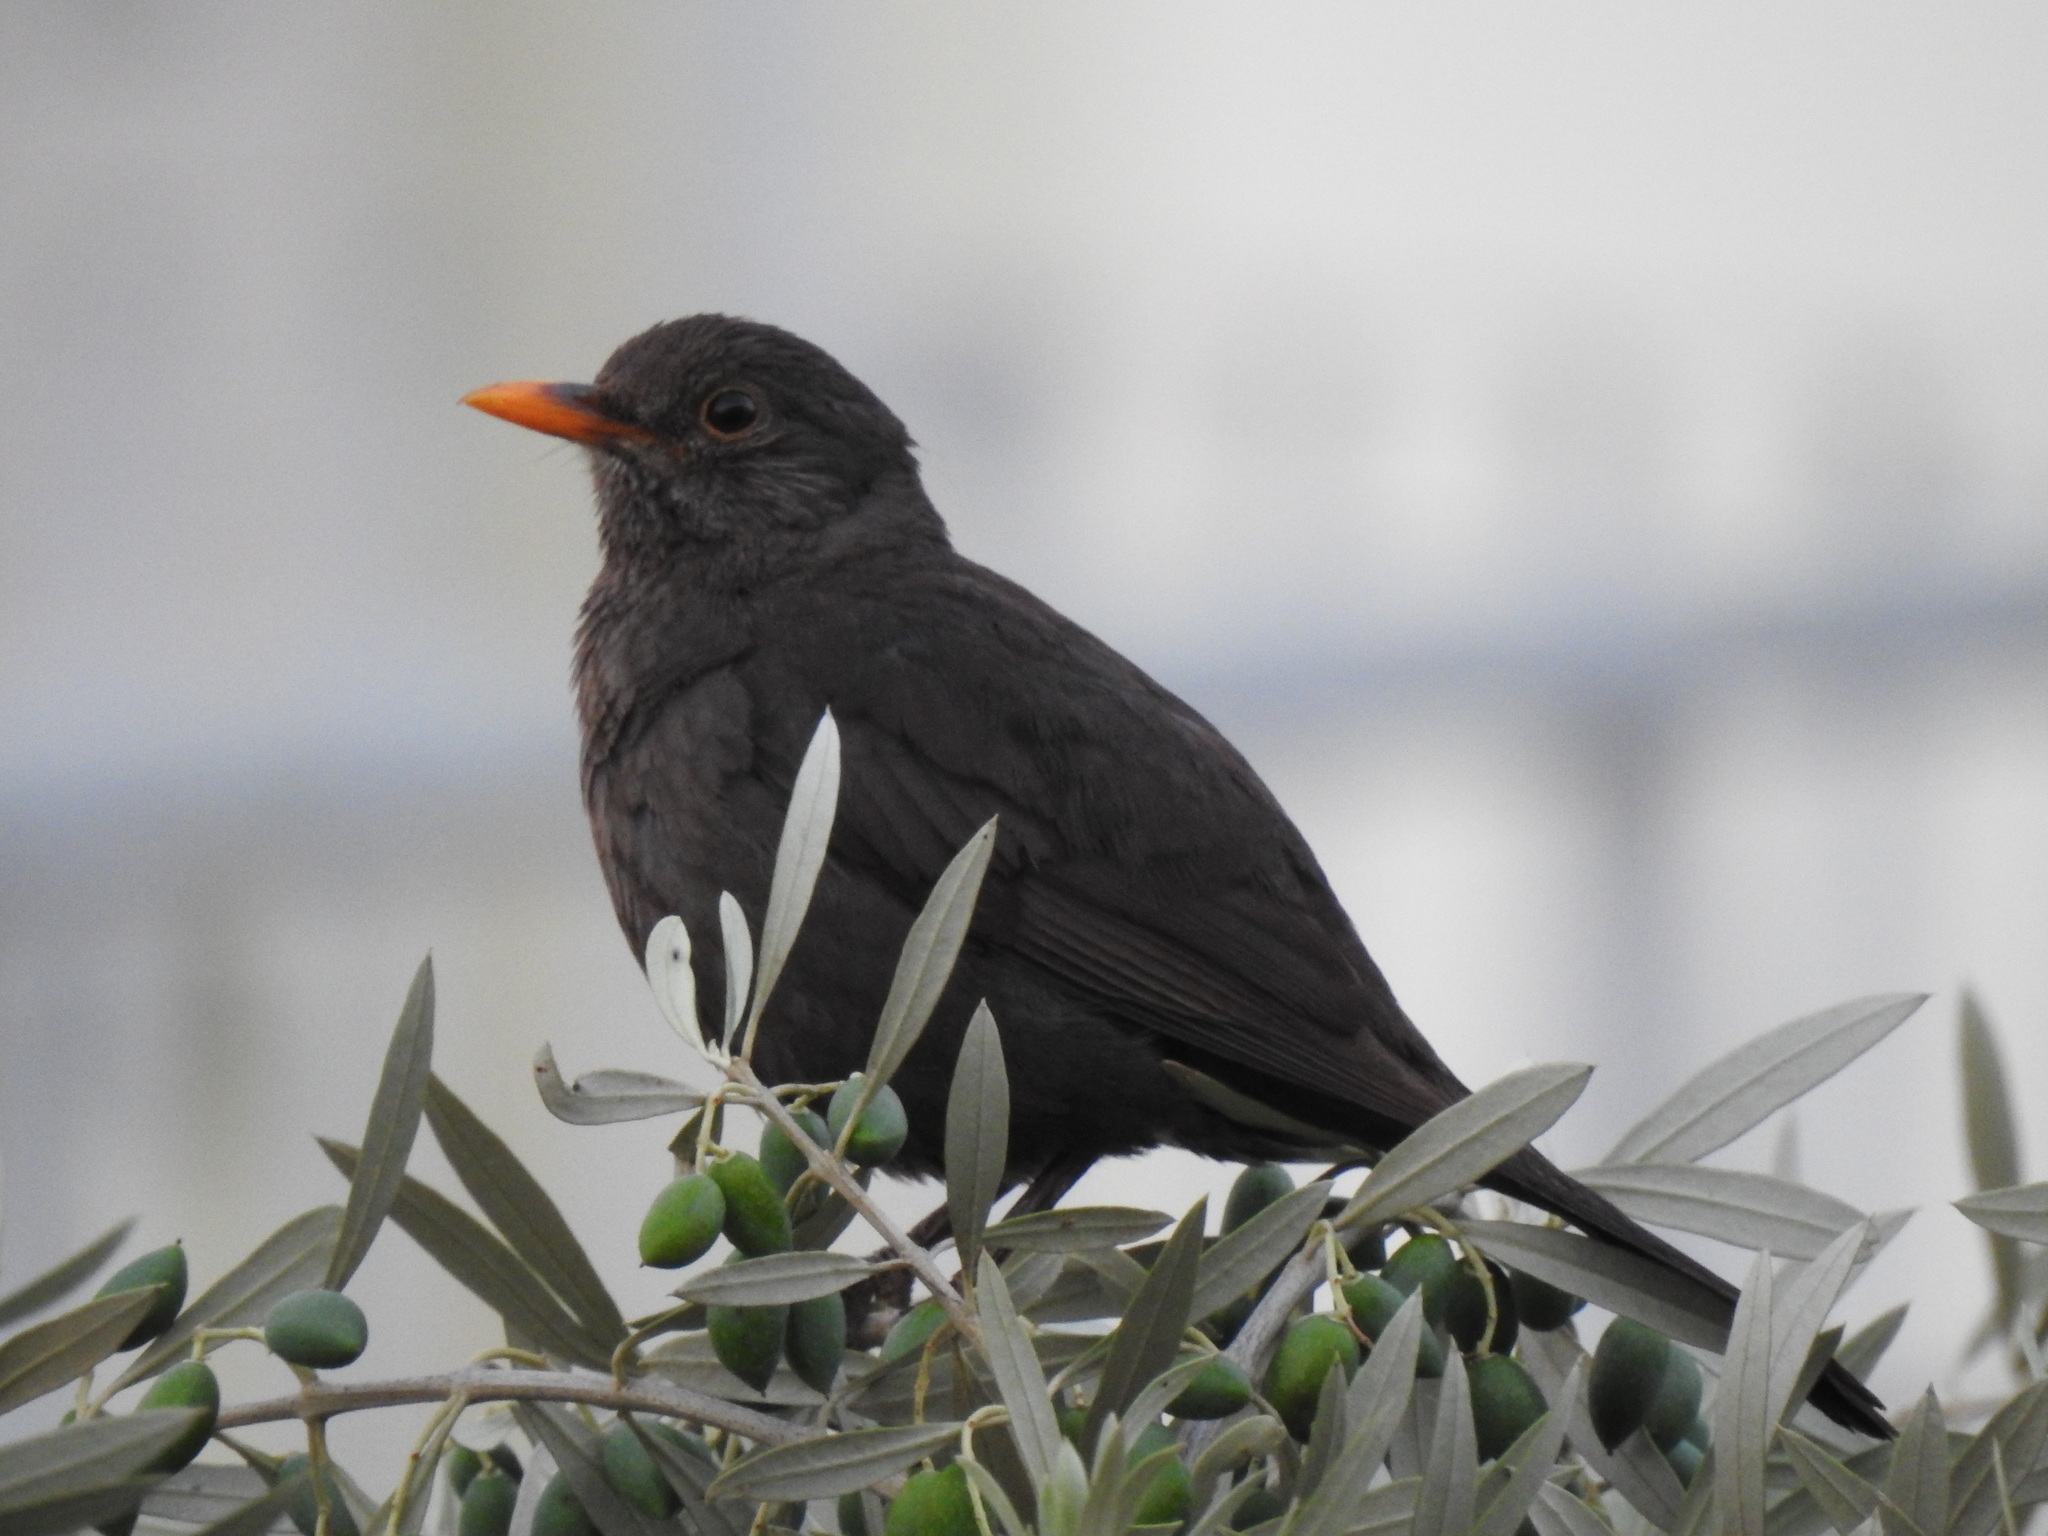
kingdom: Animalia
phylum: Chordata
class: Aves
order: Passeriformes
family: Turdidae
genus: Turdus
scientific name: Turdus merula
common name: Common blackbird
